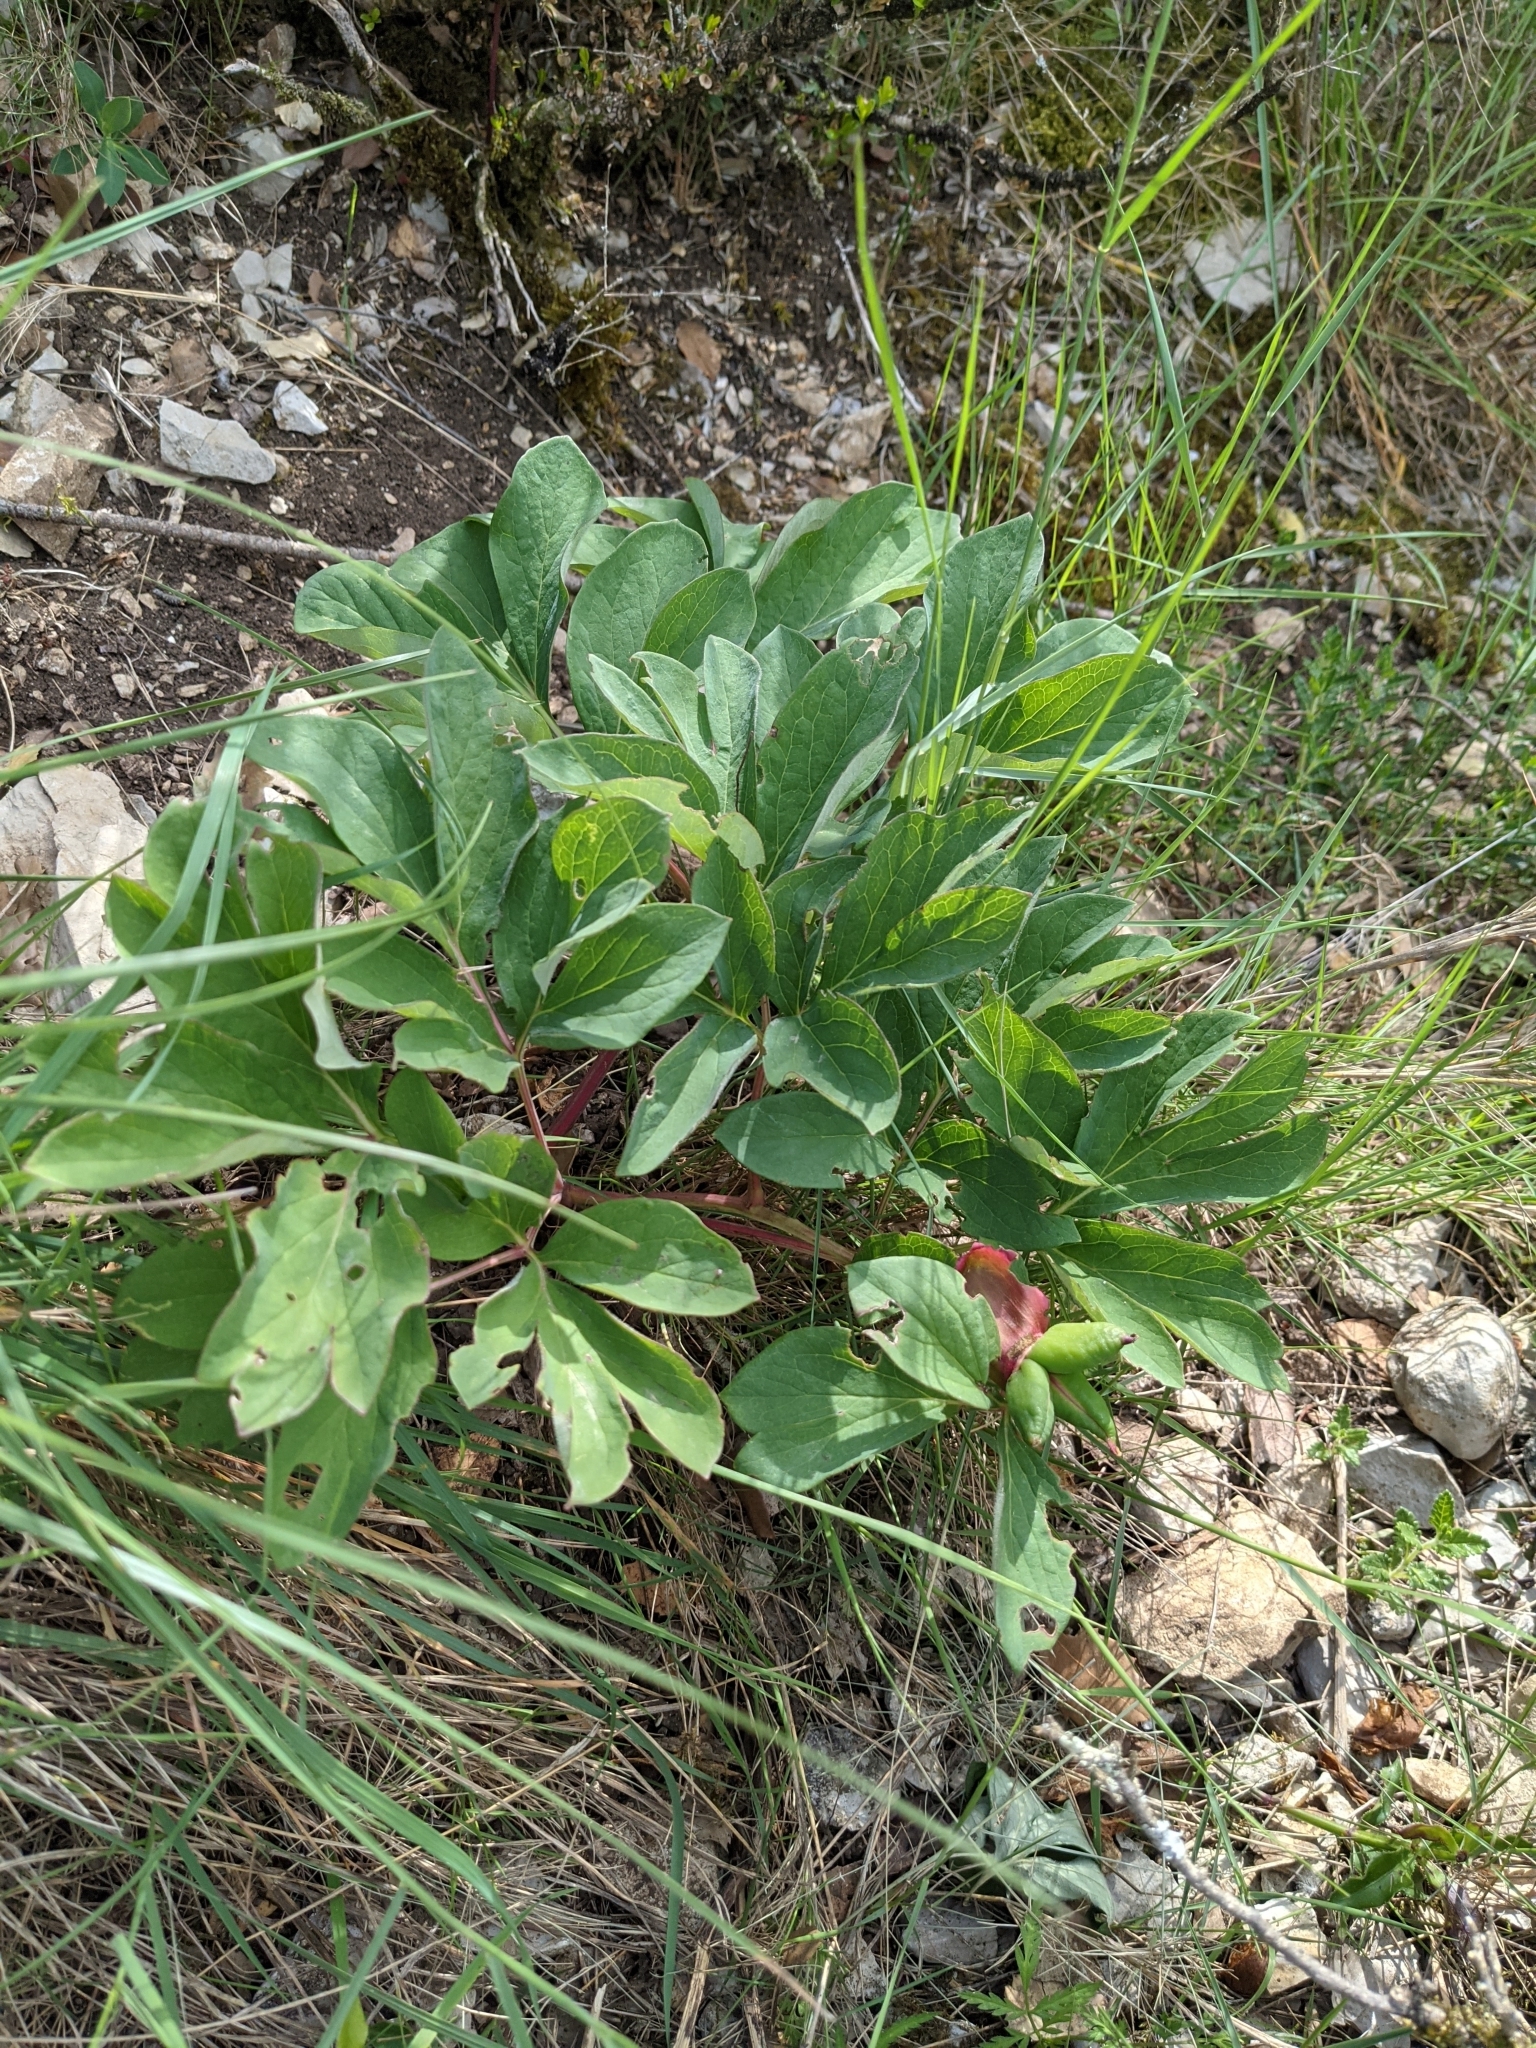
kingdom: Plantae
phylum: Tracheophyta
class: Magnoliopsida
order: Saxifragales
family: Paeoniaceae
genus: Paeonia
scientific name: Paeonia officinalis
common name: Common peony
